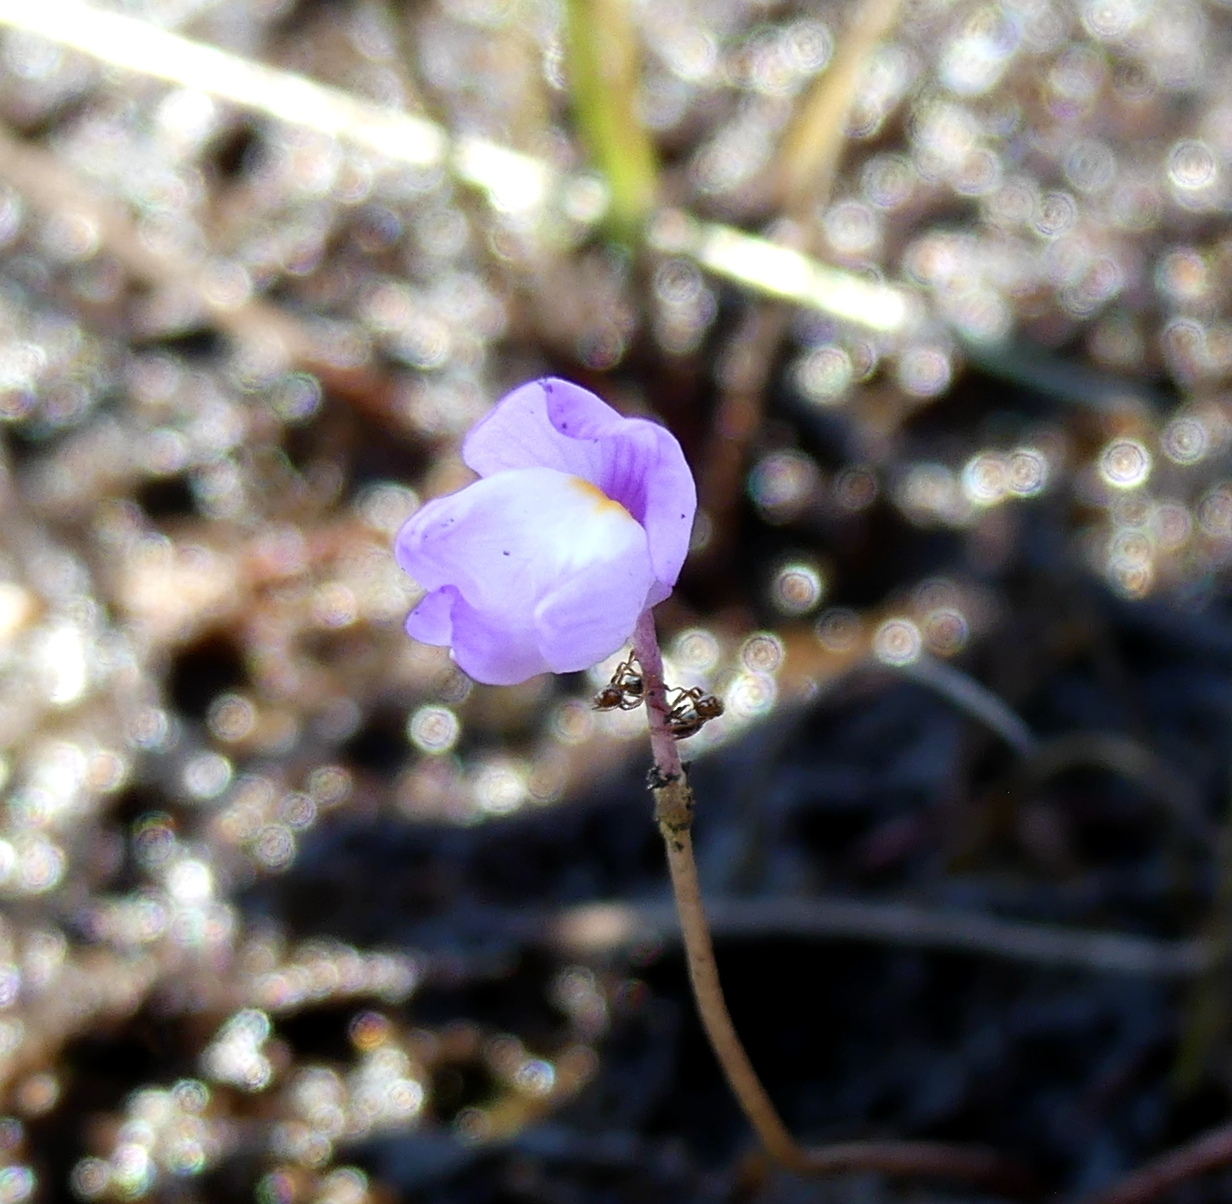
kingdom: Plantae
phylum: Tracheophyta
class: Magnoliopsida
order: Lamiales
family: Lentibulariaceae
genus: Utricularia
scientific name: Utricularia purpurea
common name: Eastern purple bladderwort
